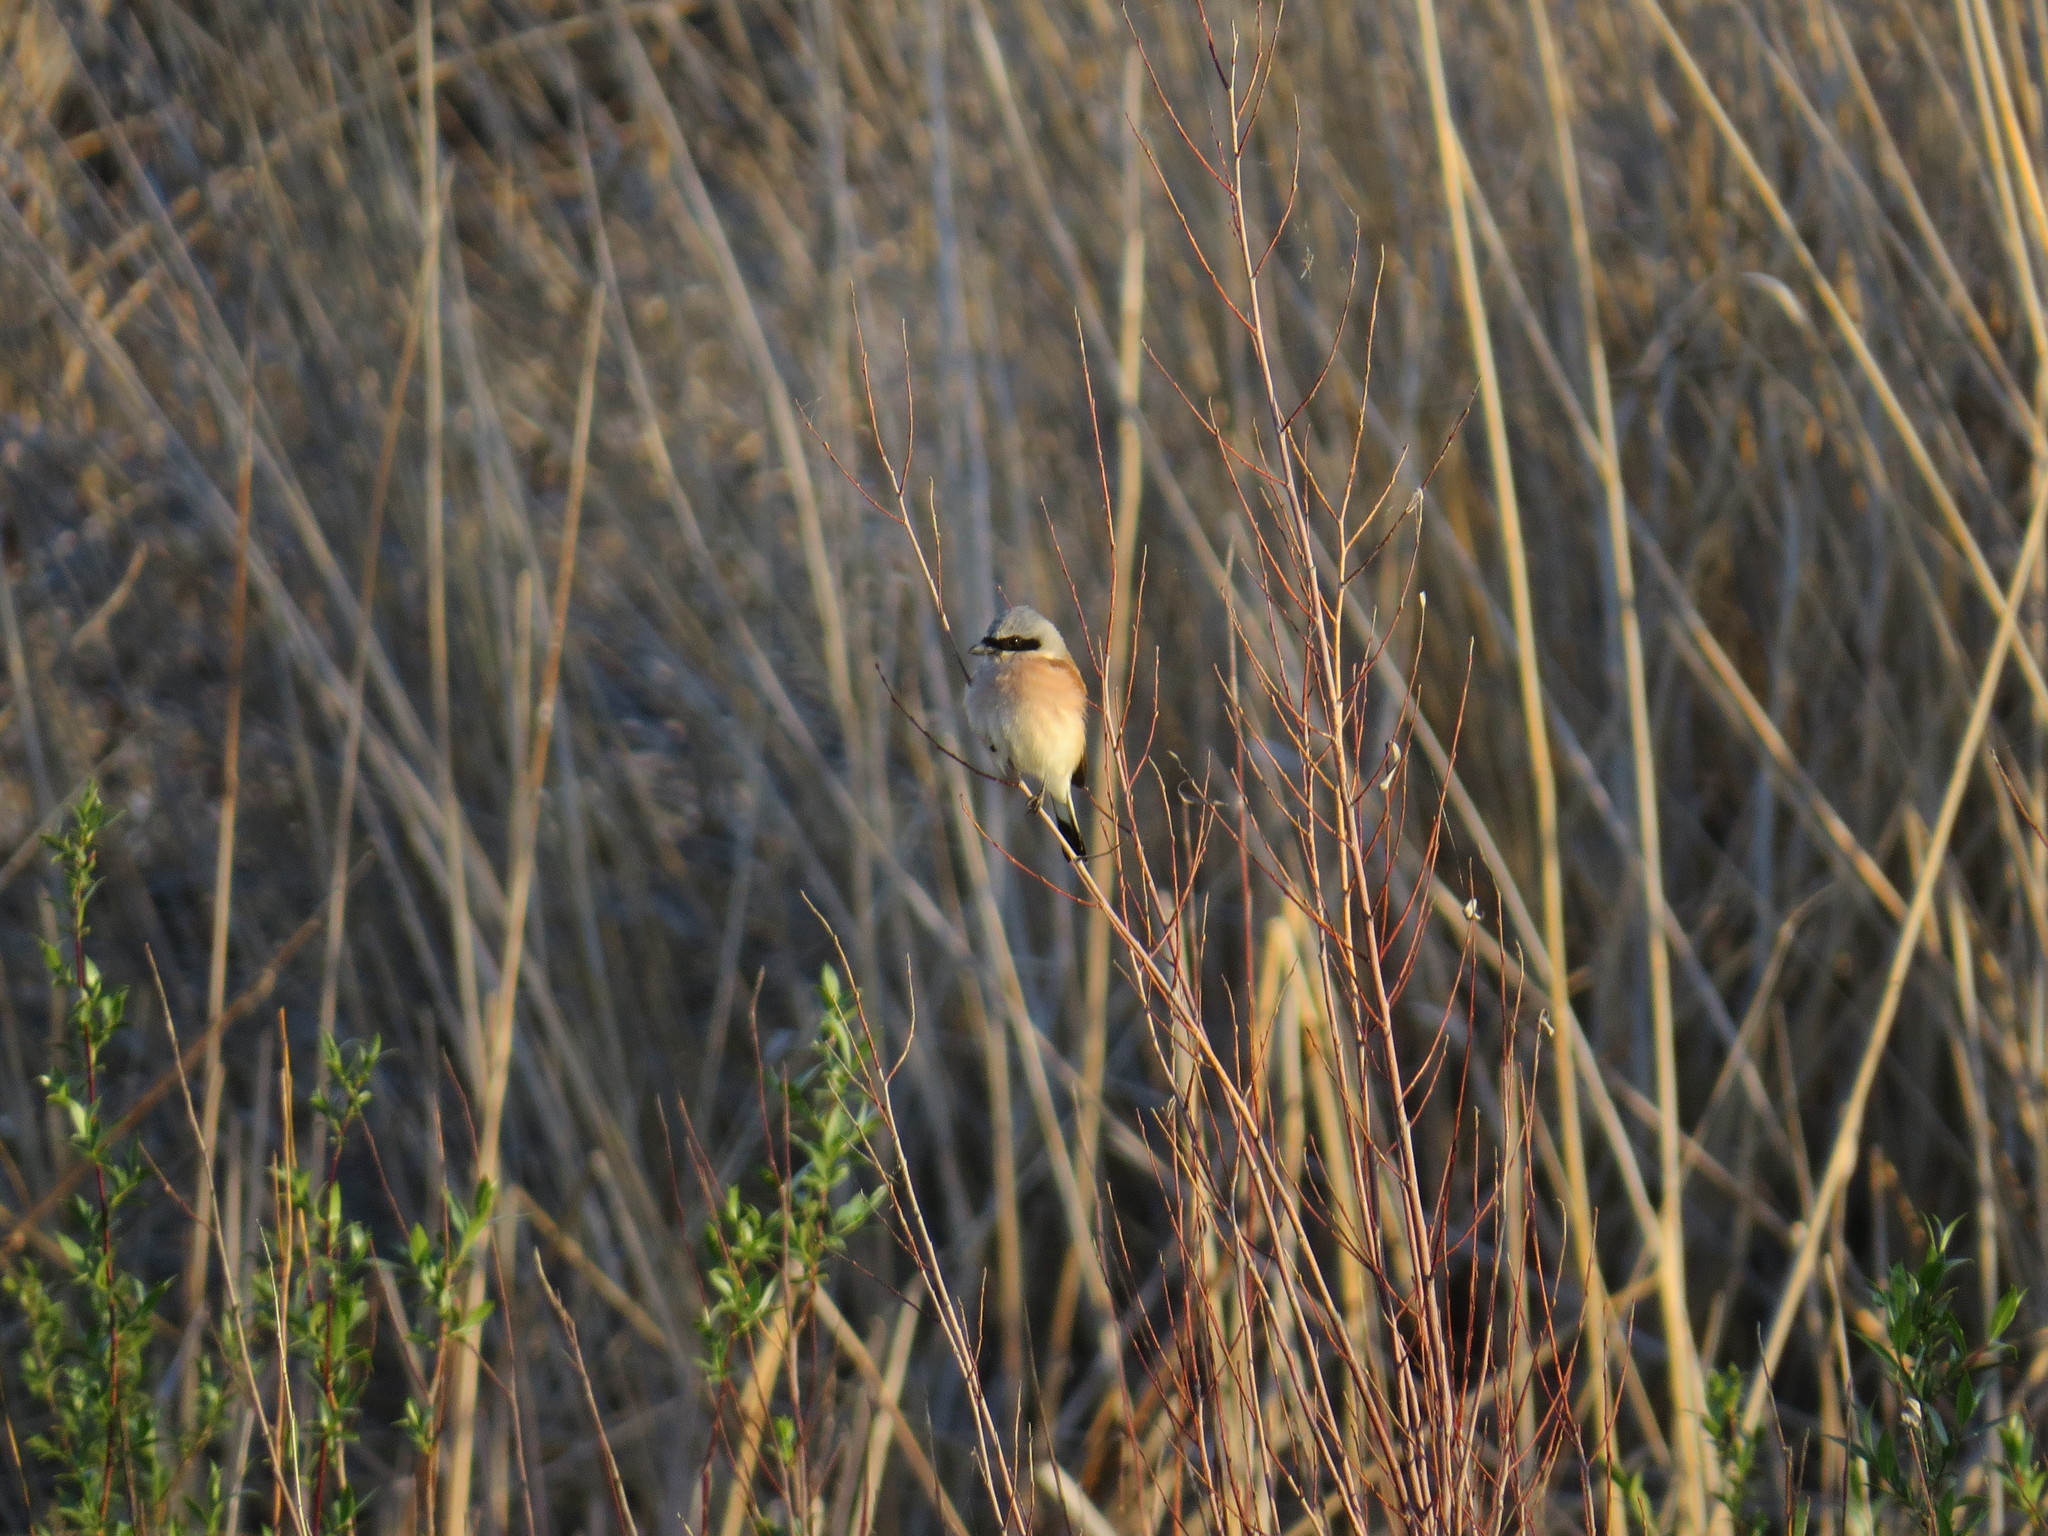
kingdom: Animalia
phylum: Chordata
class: Aves
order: Passeriformes
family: Laniidae
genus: Lanius
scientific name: Lanius collurio
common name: Red-backed shrike
